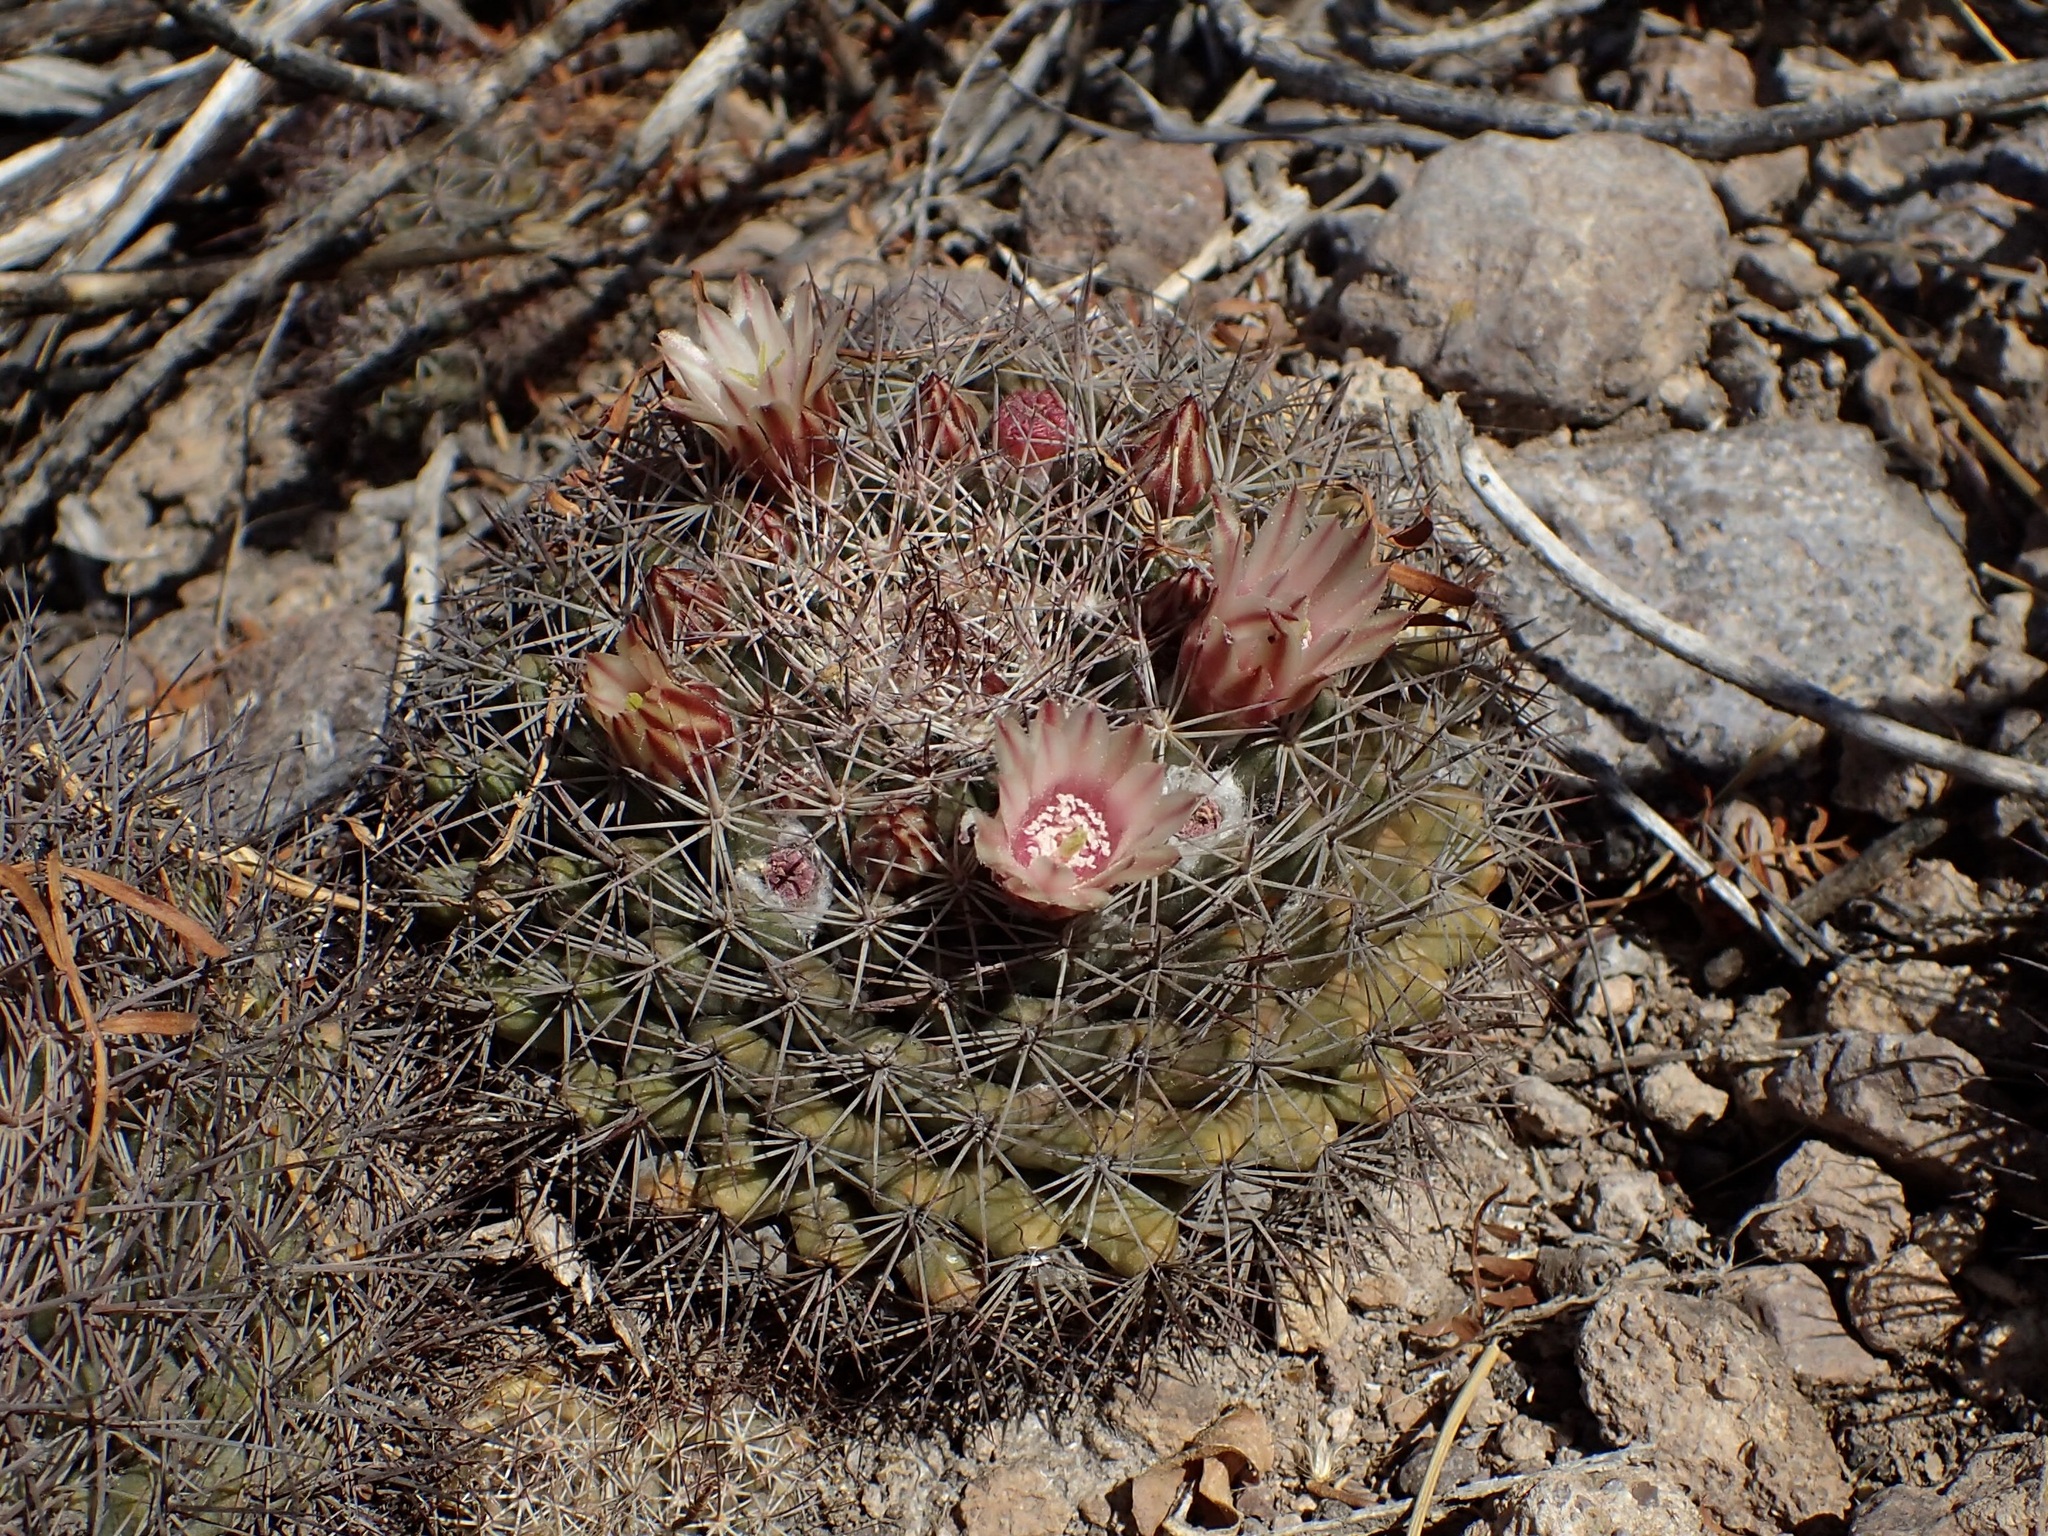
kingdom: Plantae
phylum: Tracheophyta
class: Magnoliopsida
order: Caryophyllales
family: Cactaceae
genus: Mammillaria
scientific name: Mammillaria johnstonii
